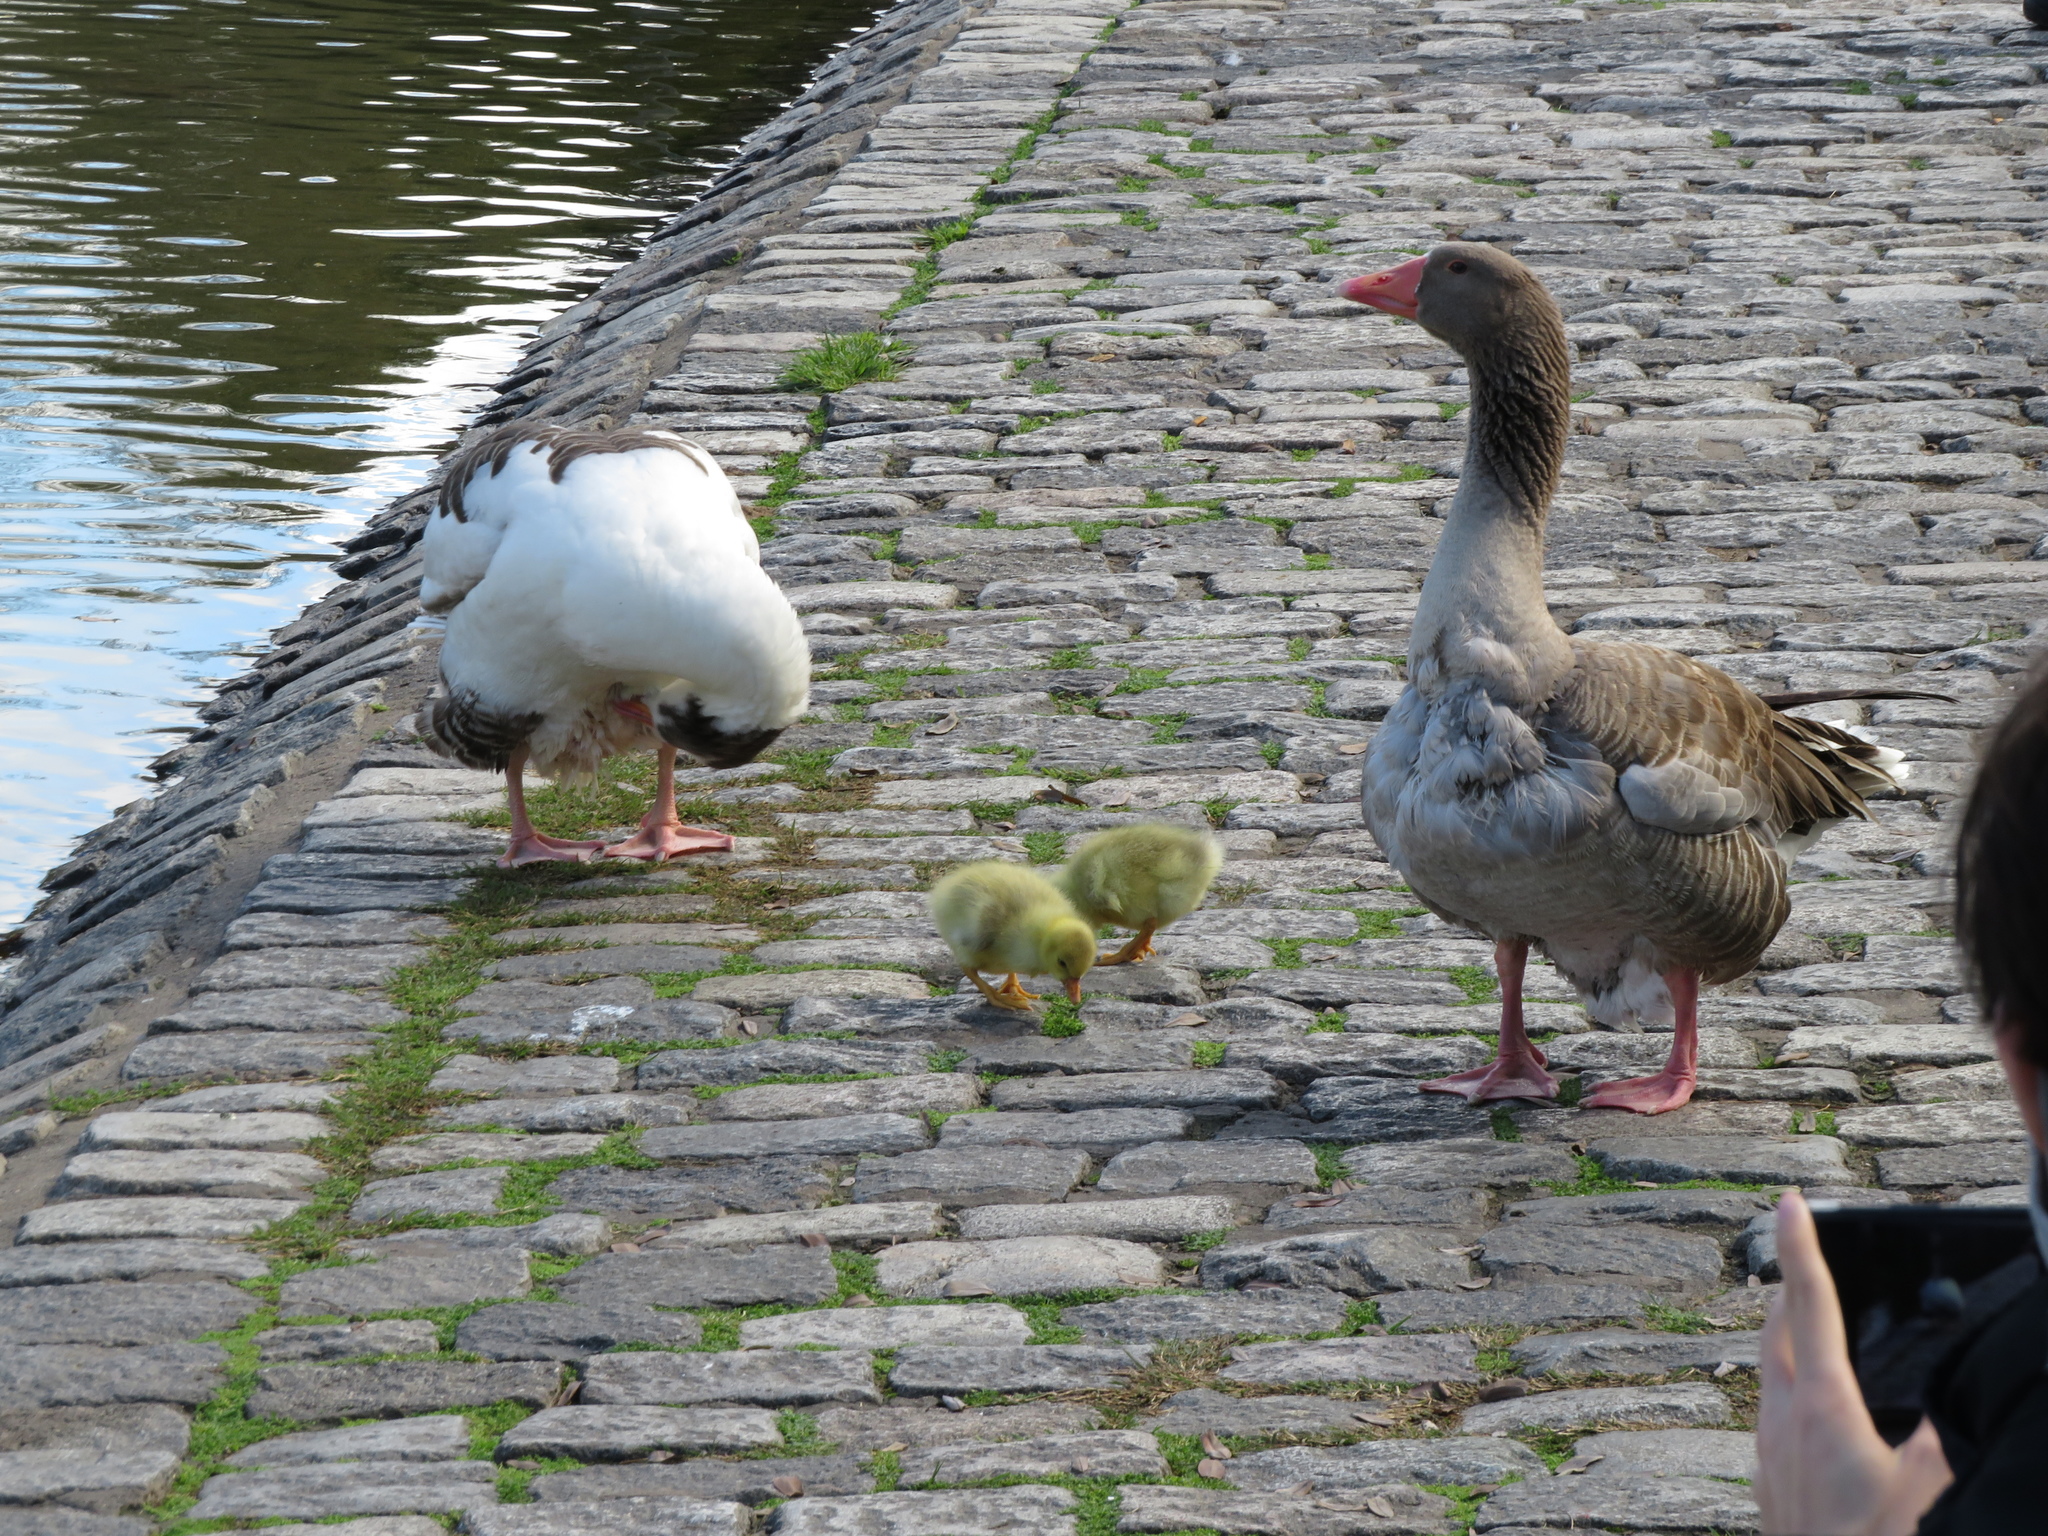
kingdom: Animalia
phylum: Chordata
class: Aves
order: Anseriformes
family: Anatidae
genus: Anser
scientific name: Anser anser
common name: Greylag goose
